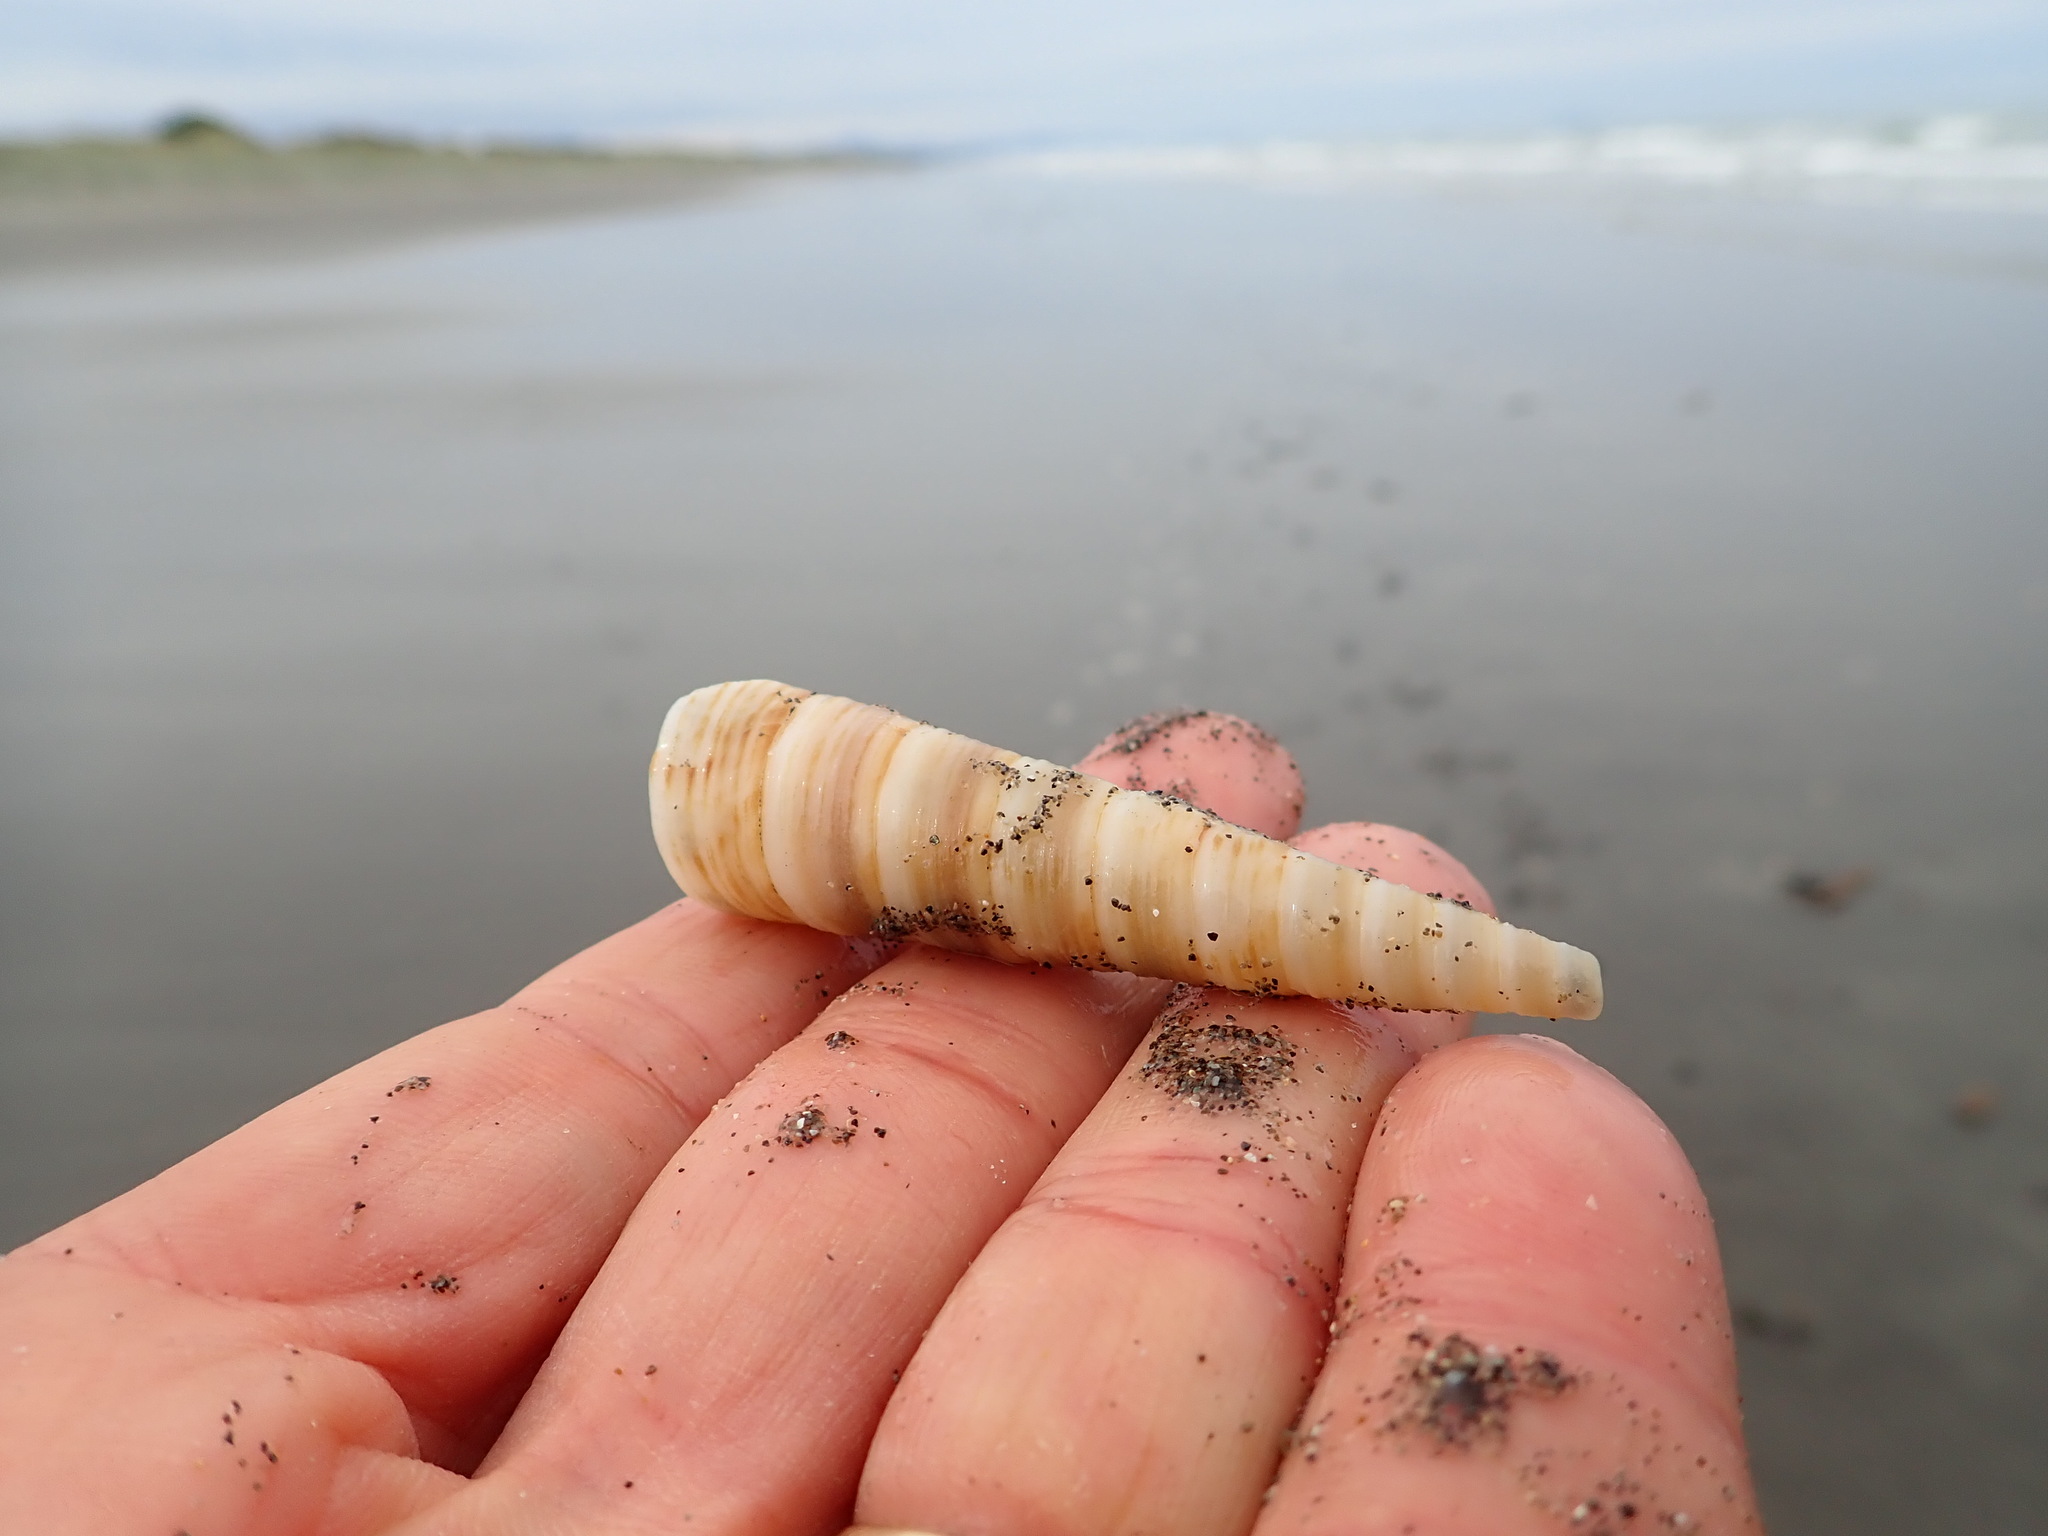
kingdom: Animalia
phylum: Mollusca
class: Gastropoda
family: Turritellidae
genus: Zeacolpus
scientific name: Zeacolpus vittatus
